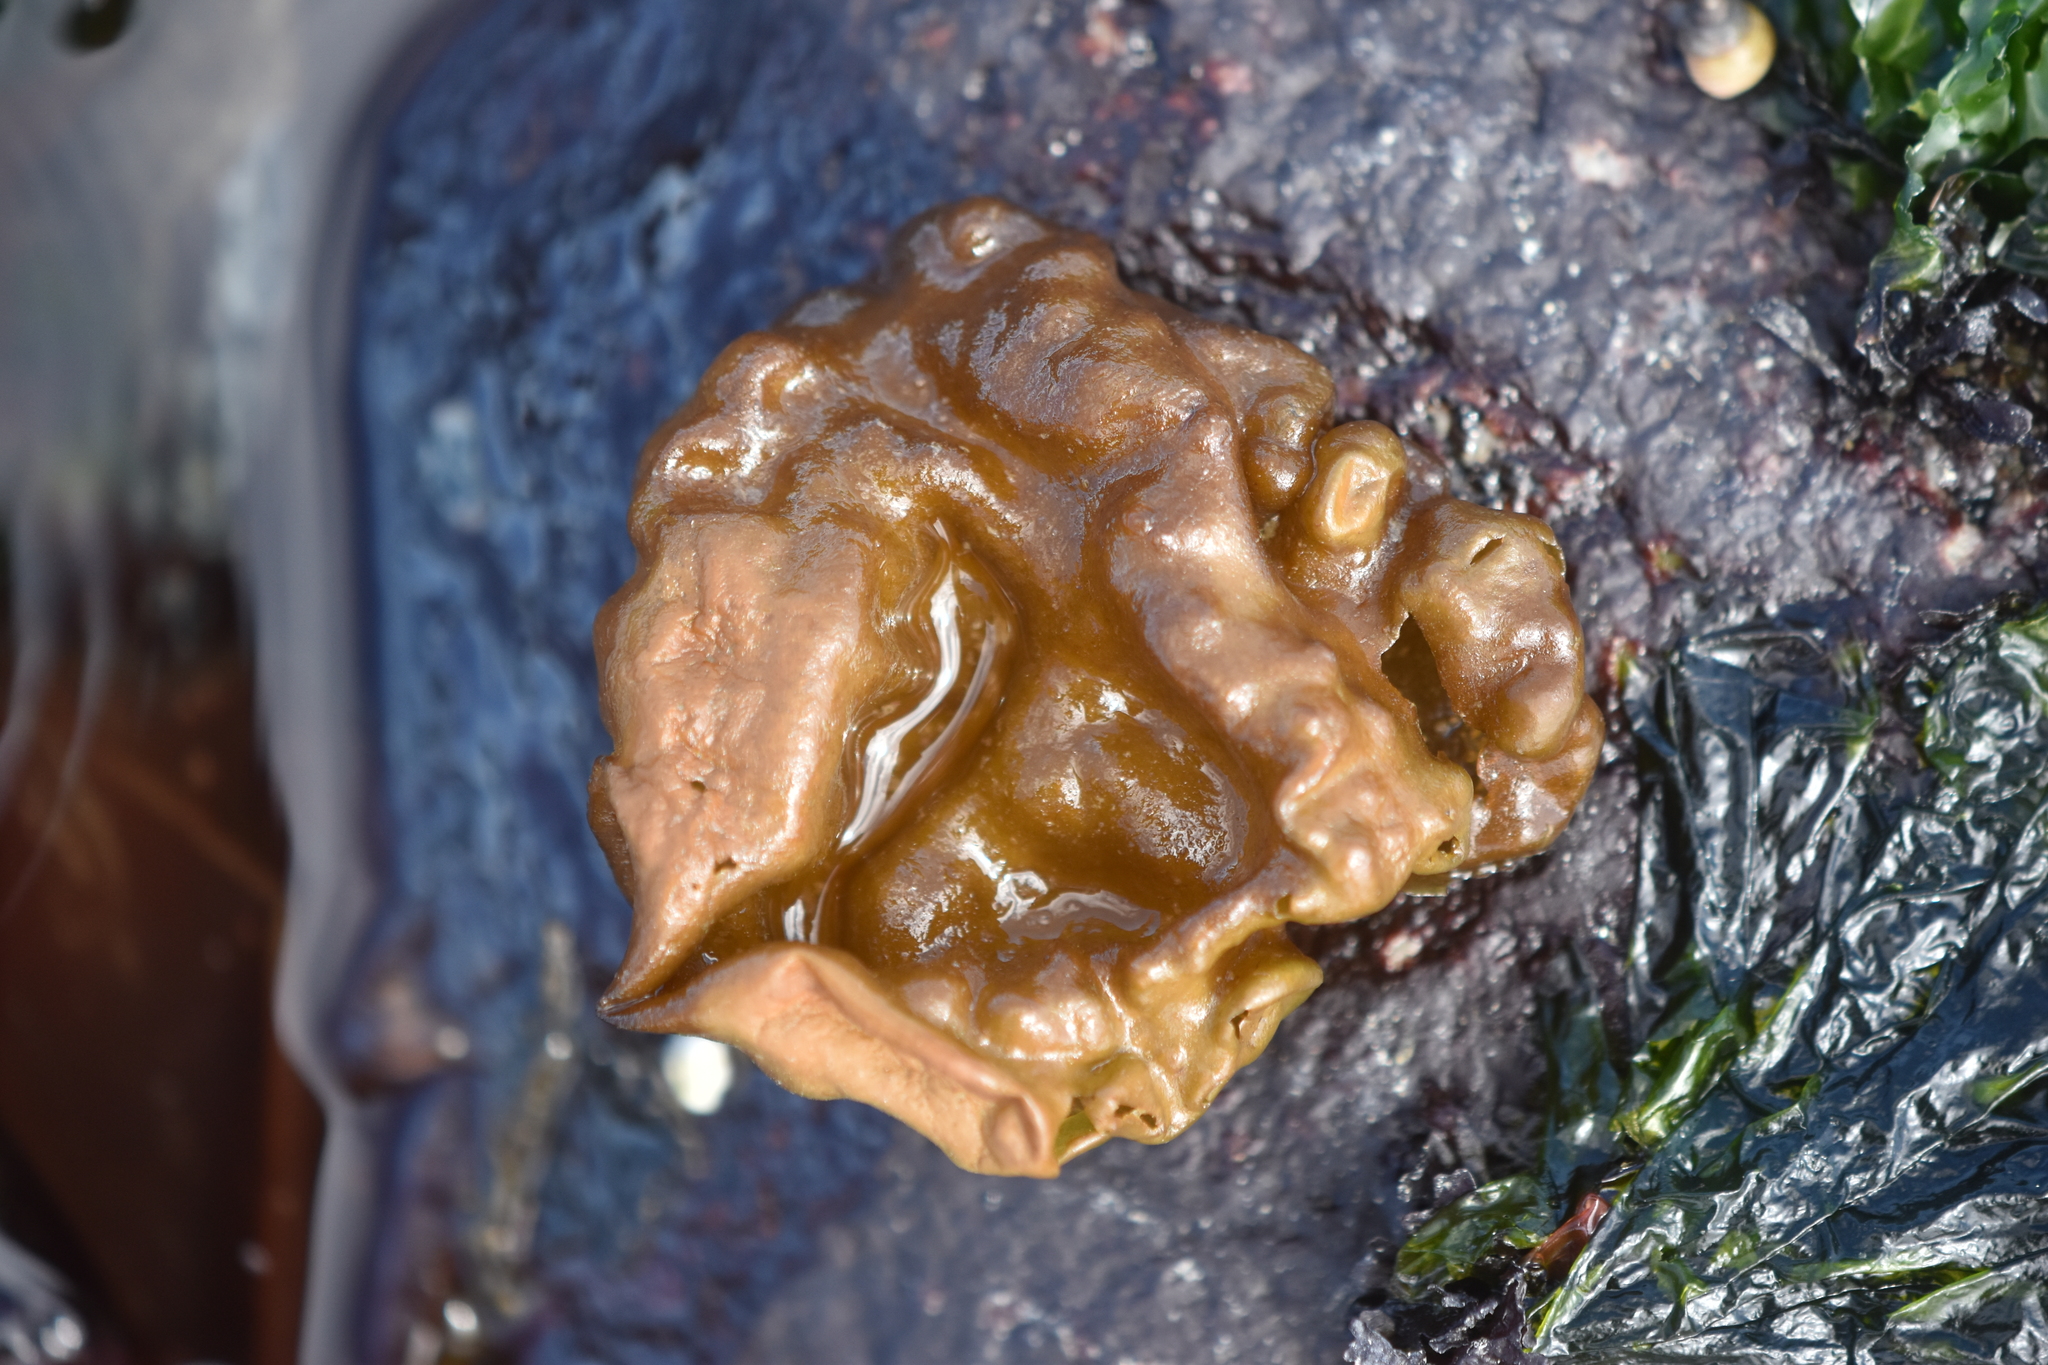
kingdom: Chromista
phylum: Ochrophyta
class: Phaeophyceae
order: Ectocarpales
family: Chordariaceae
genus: Leathesia
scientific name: Leathesia marina
